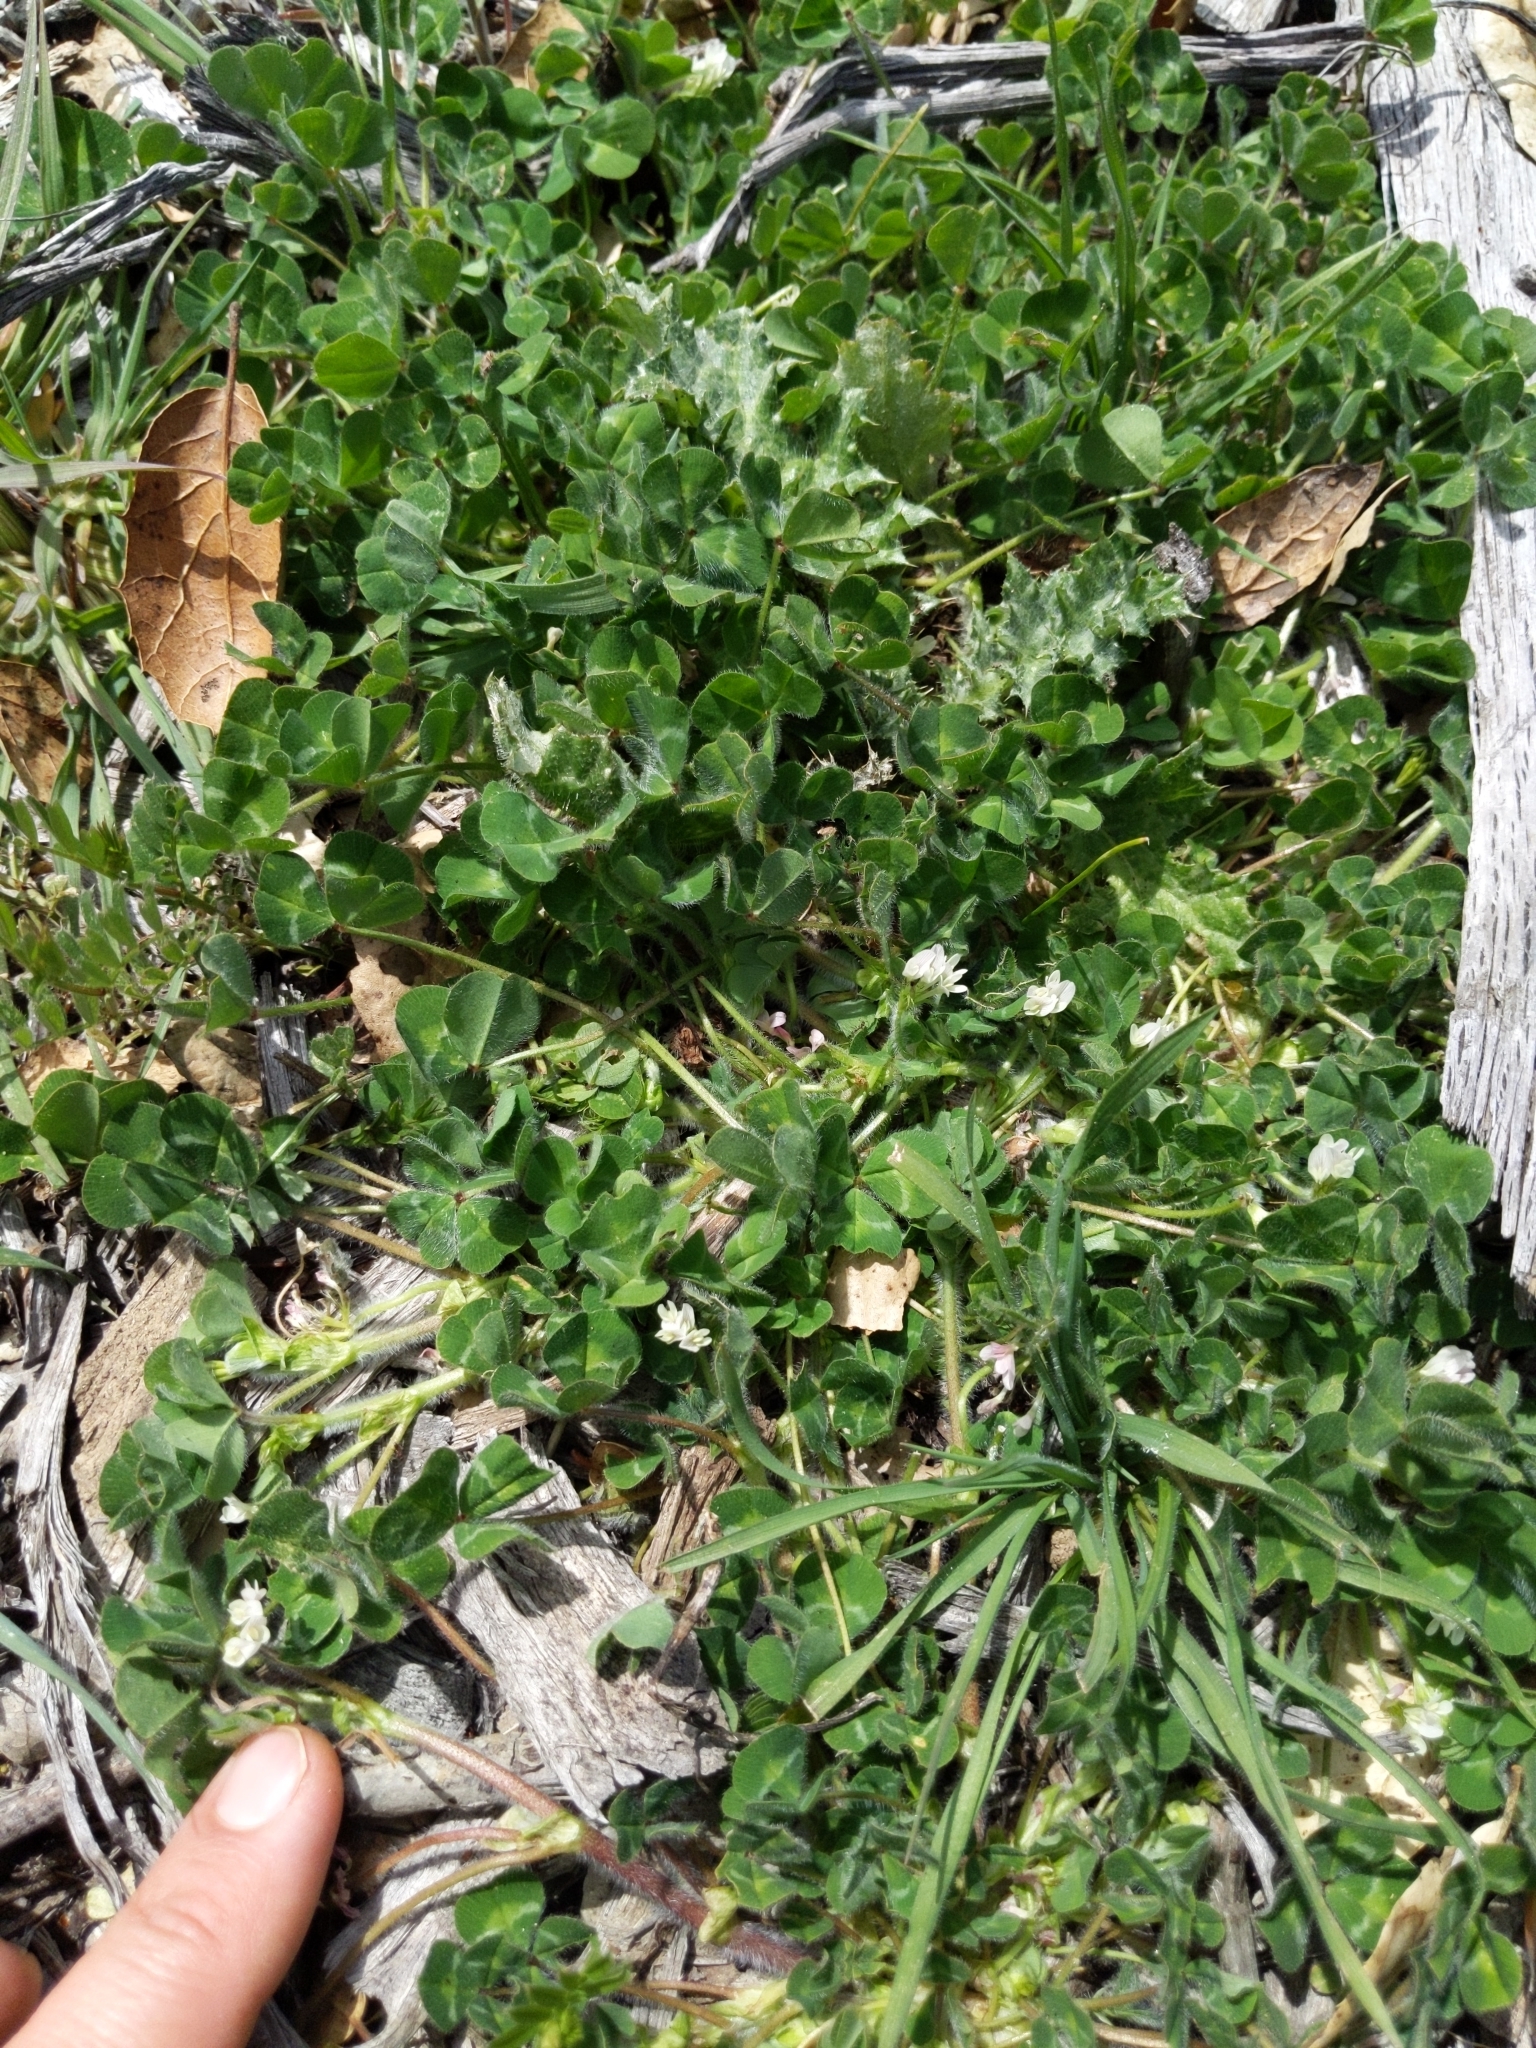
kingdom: Plantae
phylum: Tracheophyta
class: Magnoliopsida
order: Fabales
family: Fabaceae
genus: Trifolium
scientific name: Trifolium subterraneum
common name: Subterranean clover
